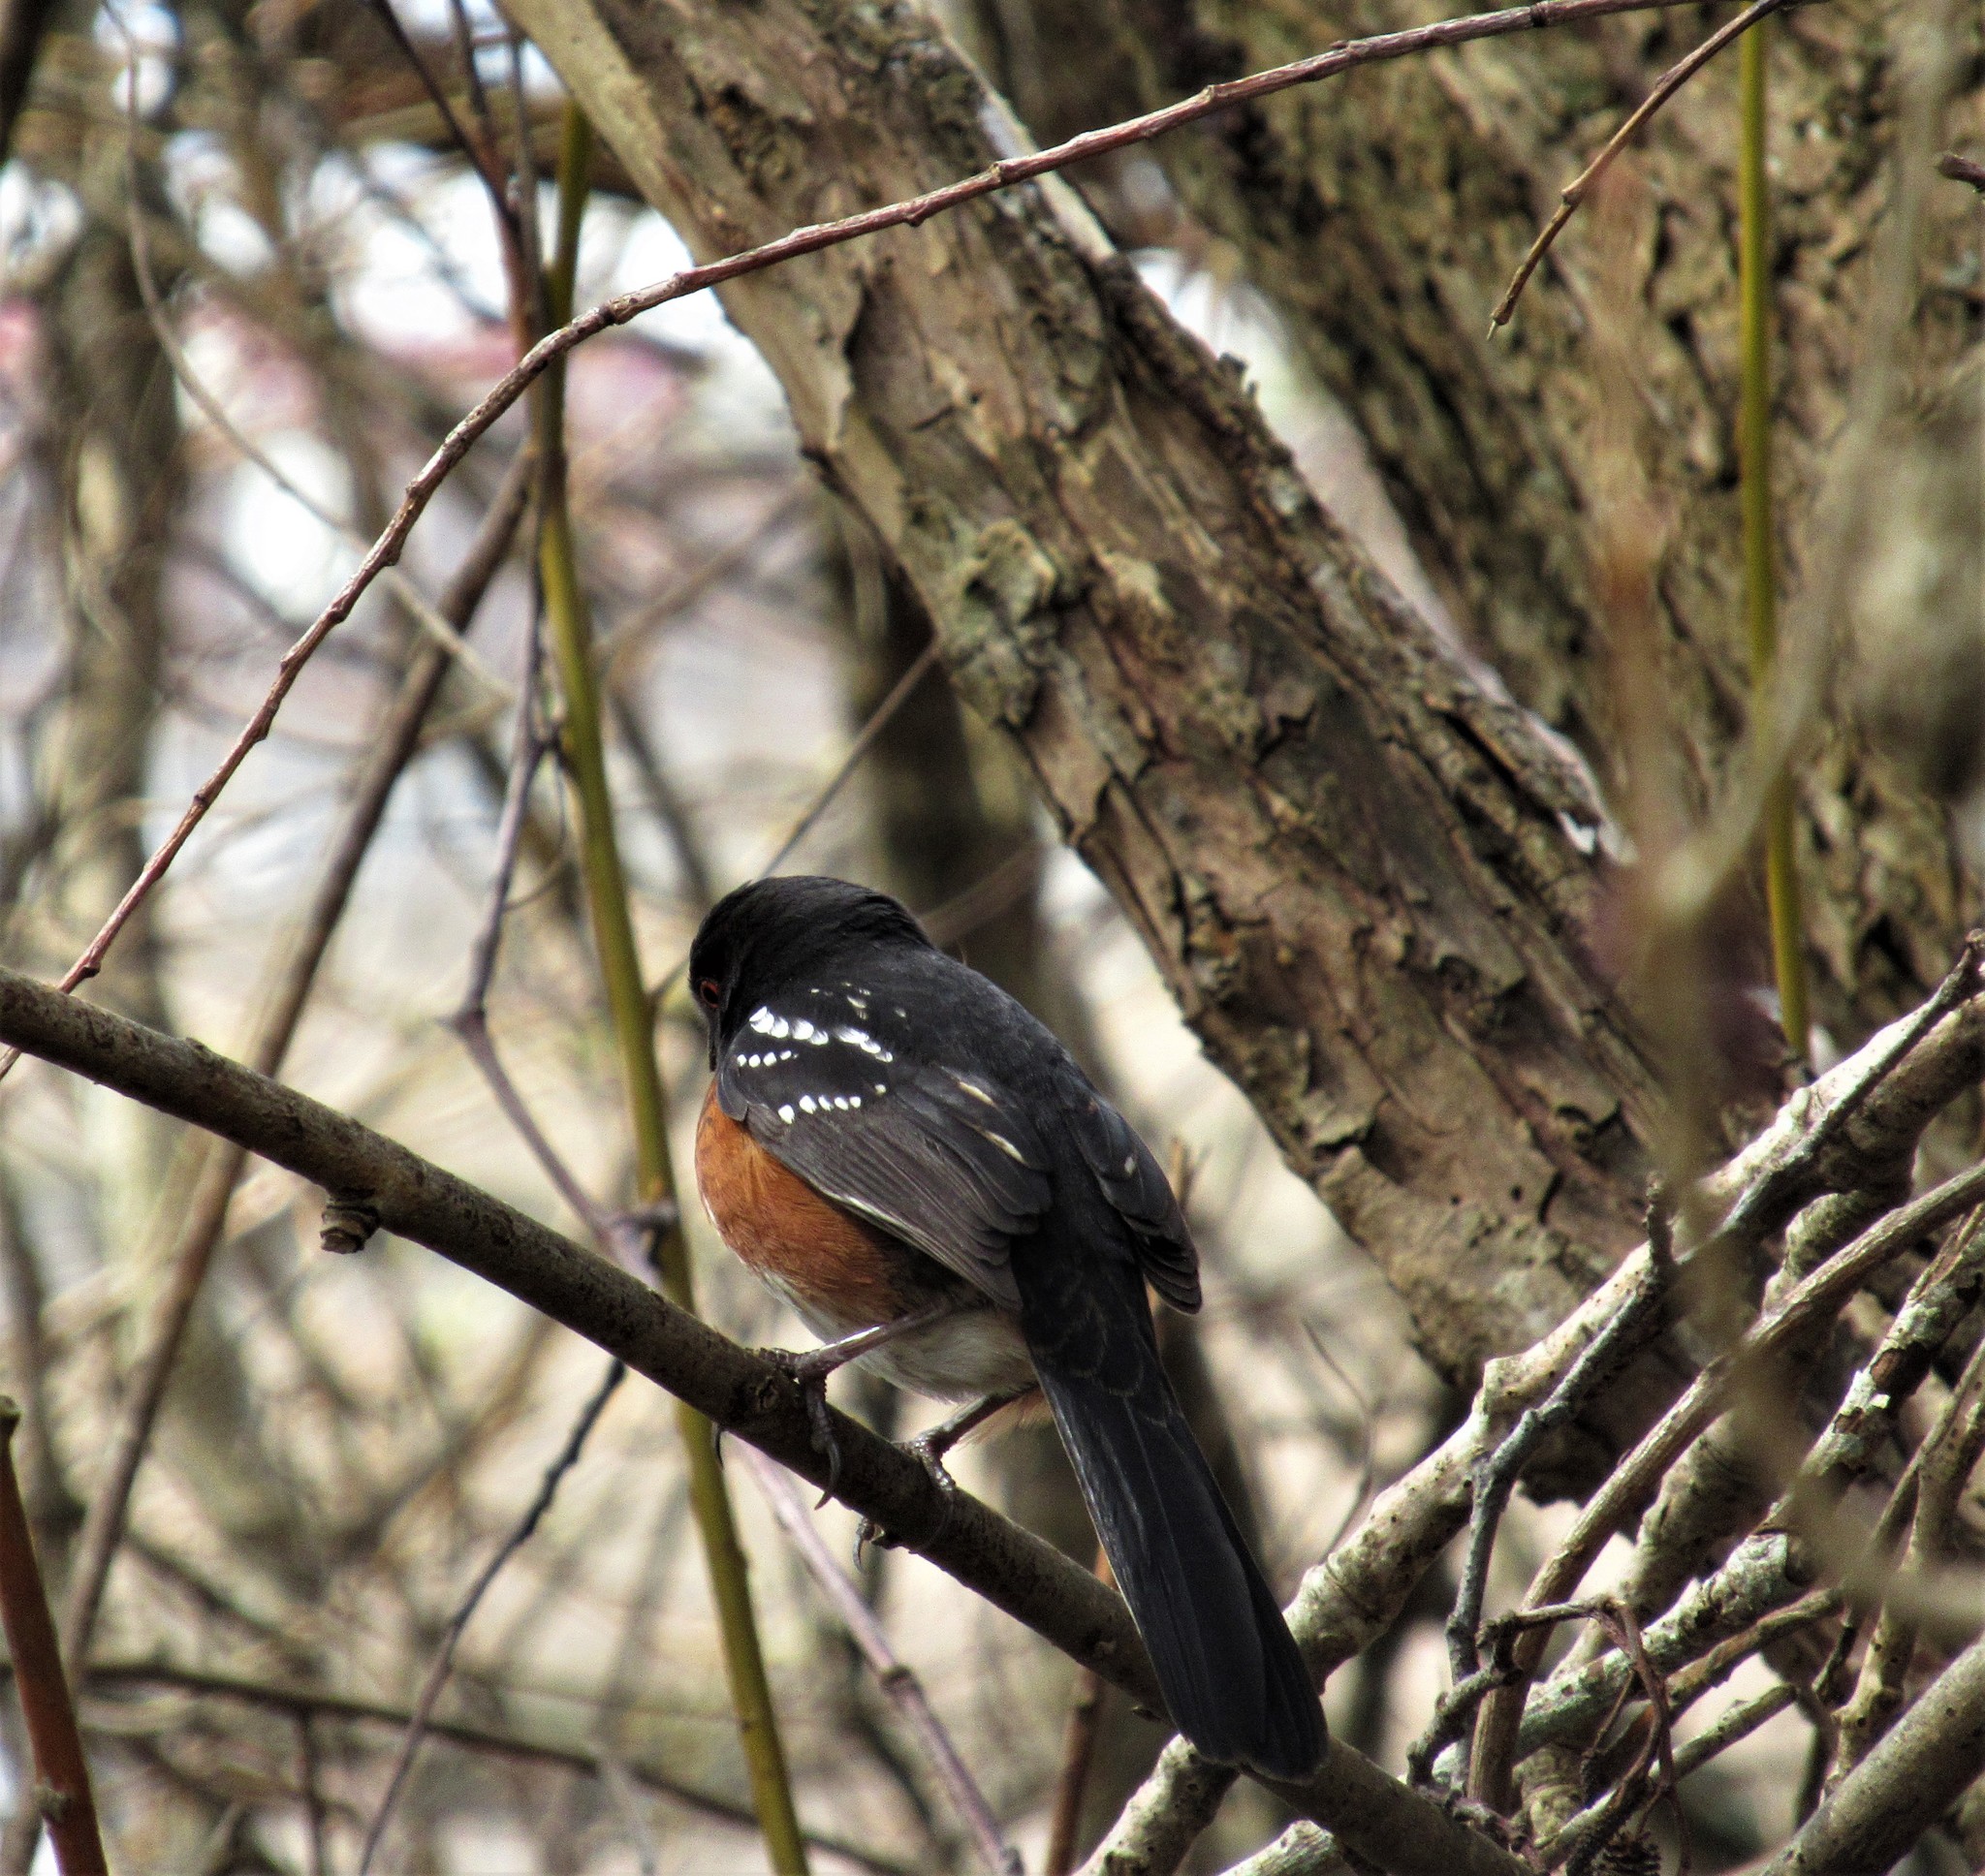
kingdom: Animalia
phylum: Chordata
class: Aves
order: Passeriformes
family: Passerellidae
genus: Pipilo
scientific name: Pipilo maculatus
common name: Spotted towhee
